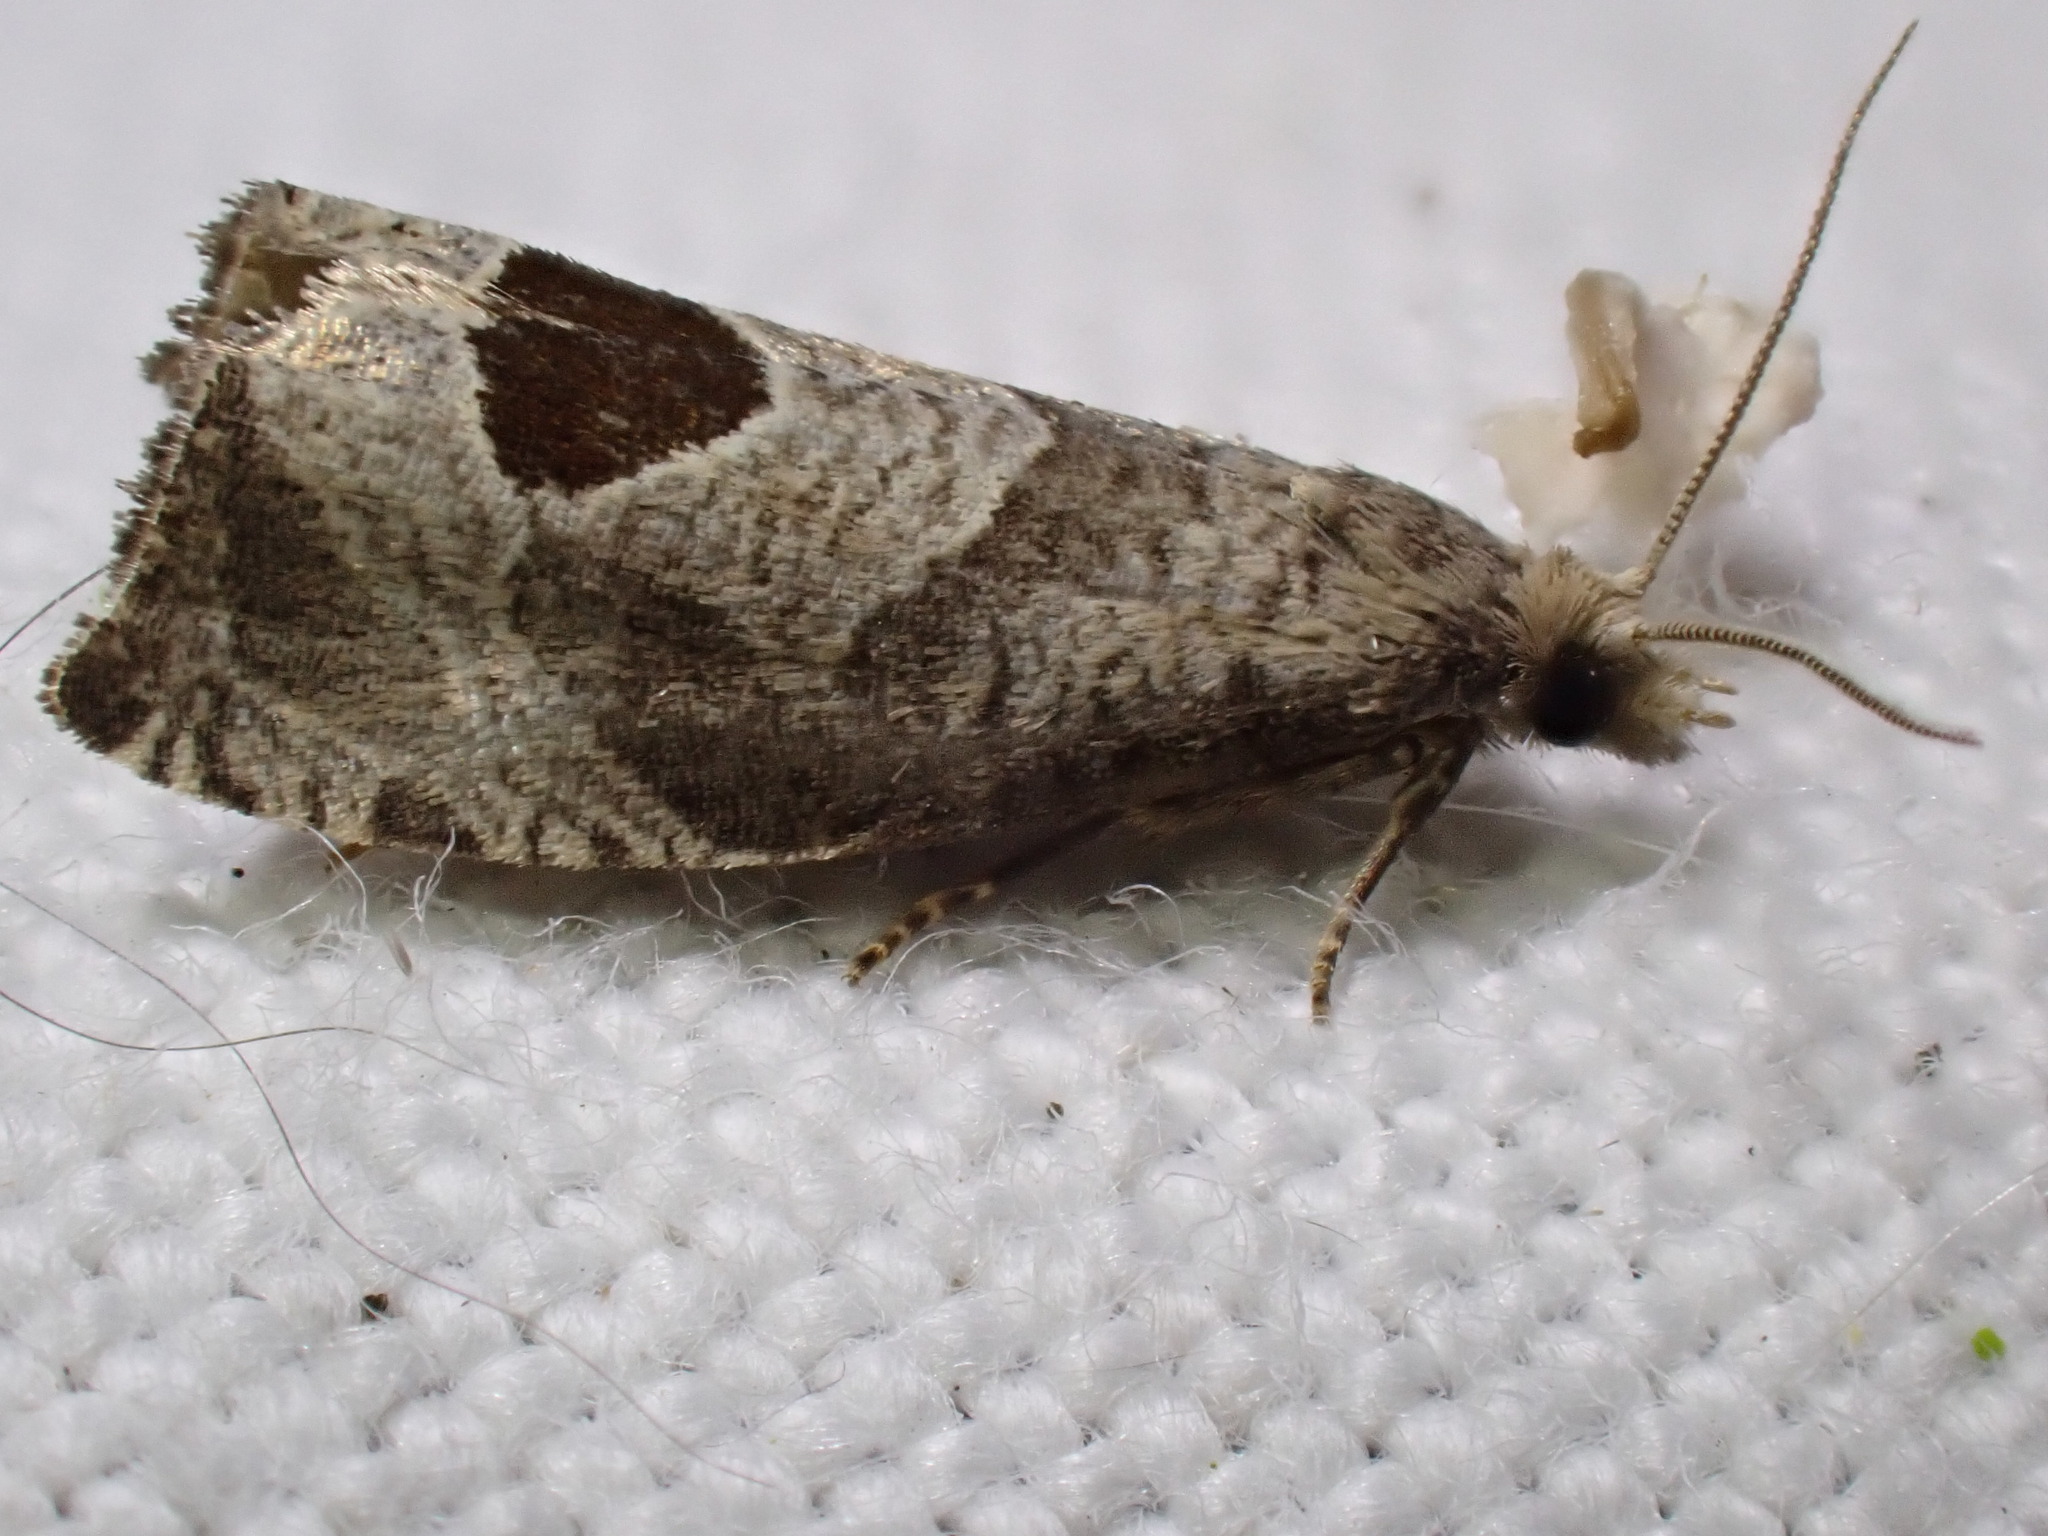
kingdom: Animalia
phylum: Arthropoda
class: Insecta
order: Lepidoptera
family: Tortricidae
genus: Notocelia
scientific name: Notocelia uddmanniana
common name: Bramble shoot moth
